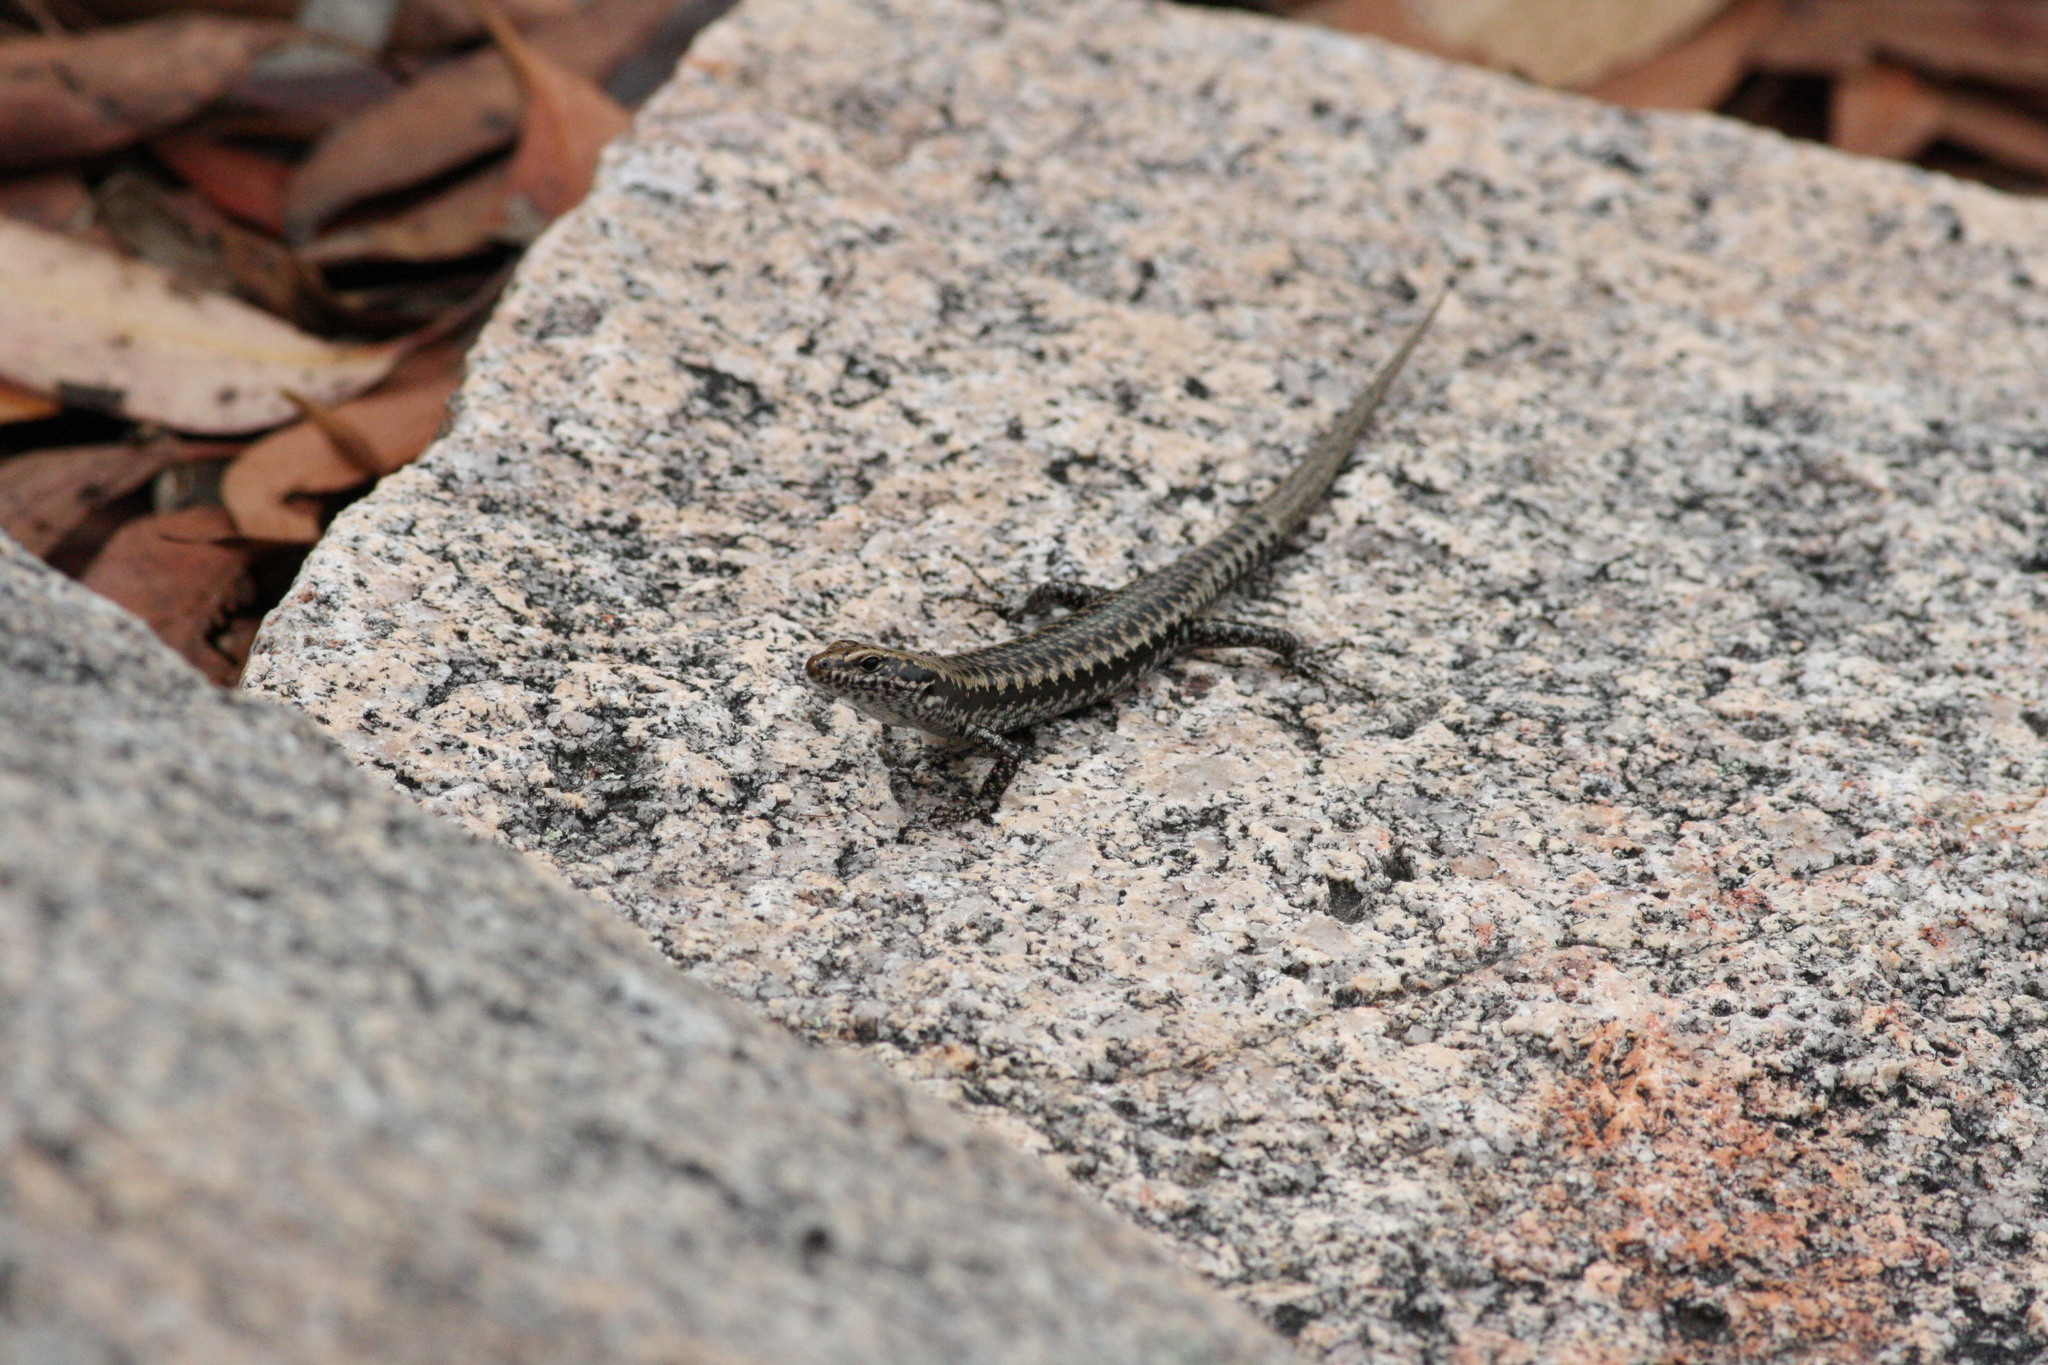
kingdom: Animalia
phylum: Chordata
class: Squamata
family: Scincidae
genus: Concinnia
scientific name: Concinnia martini
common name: Dark barsided skink
